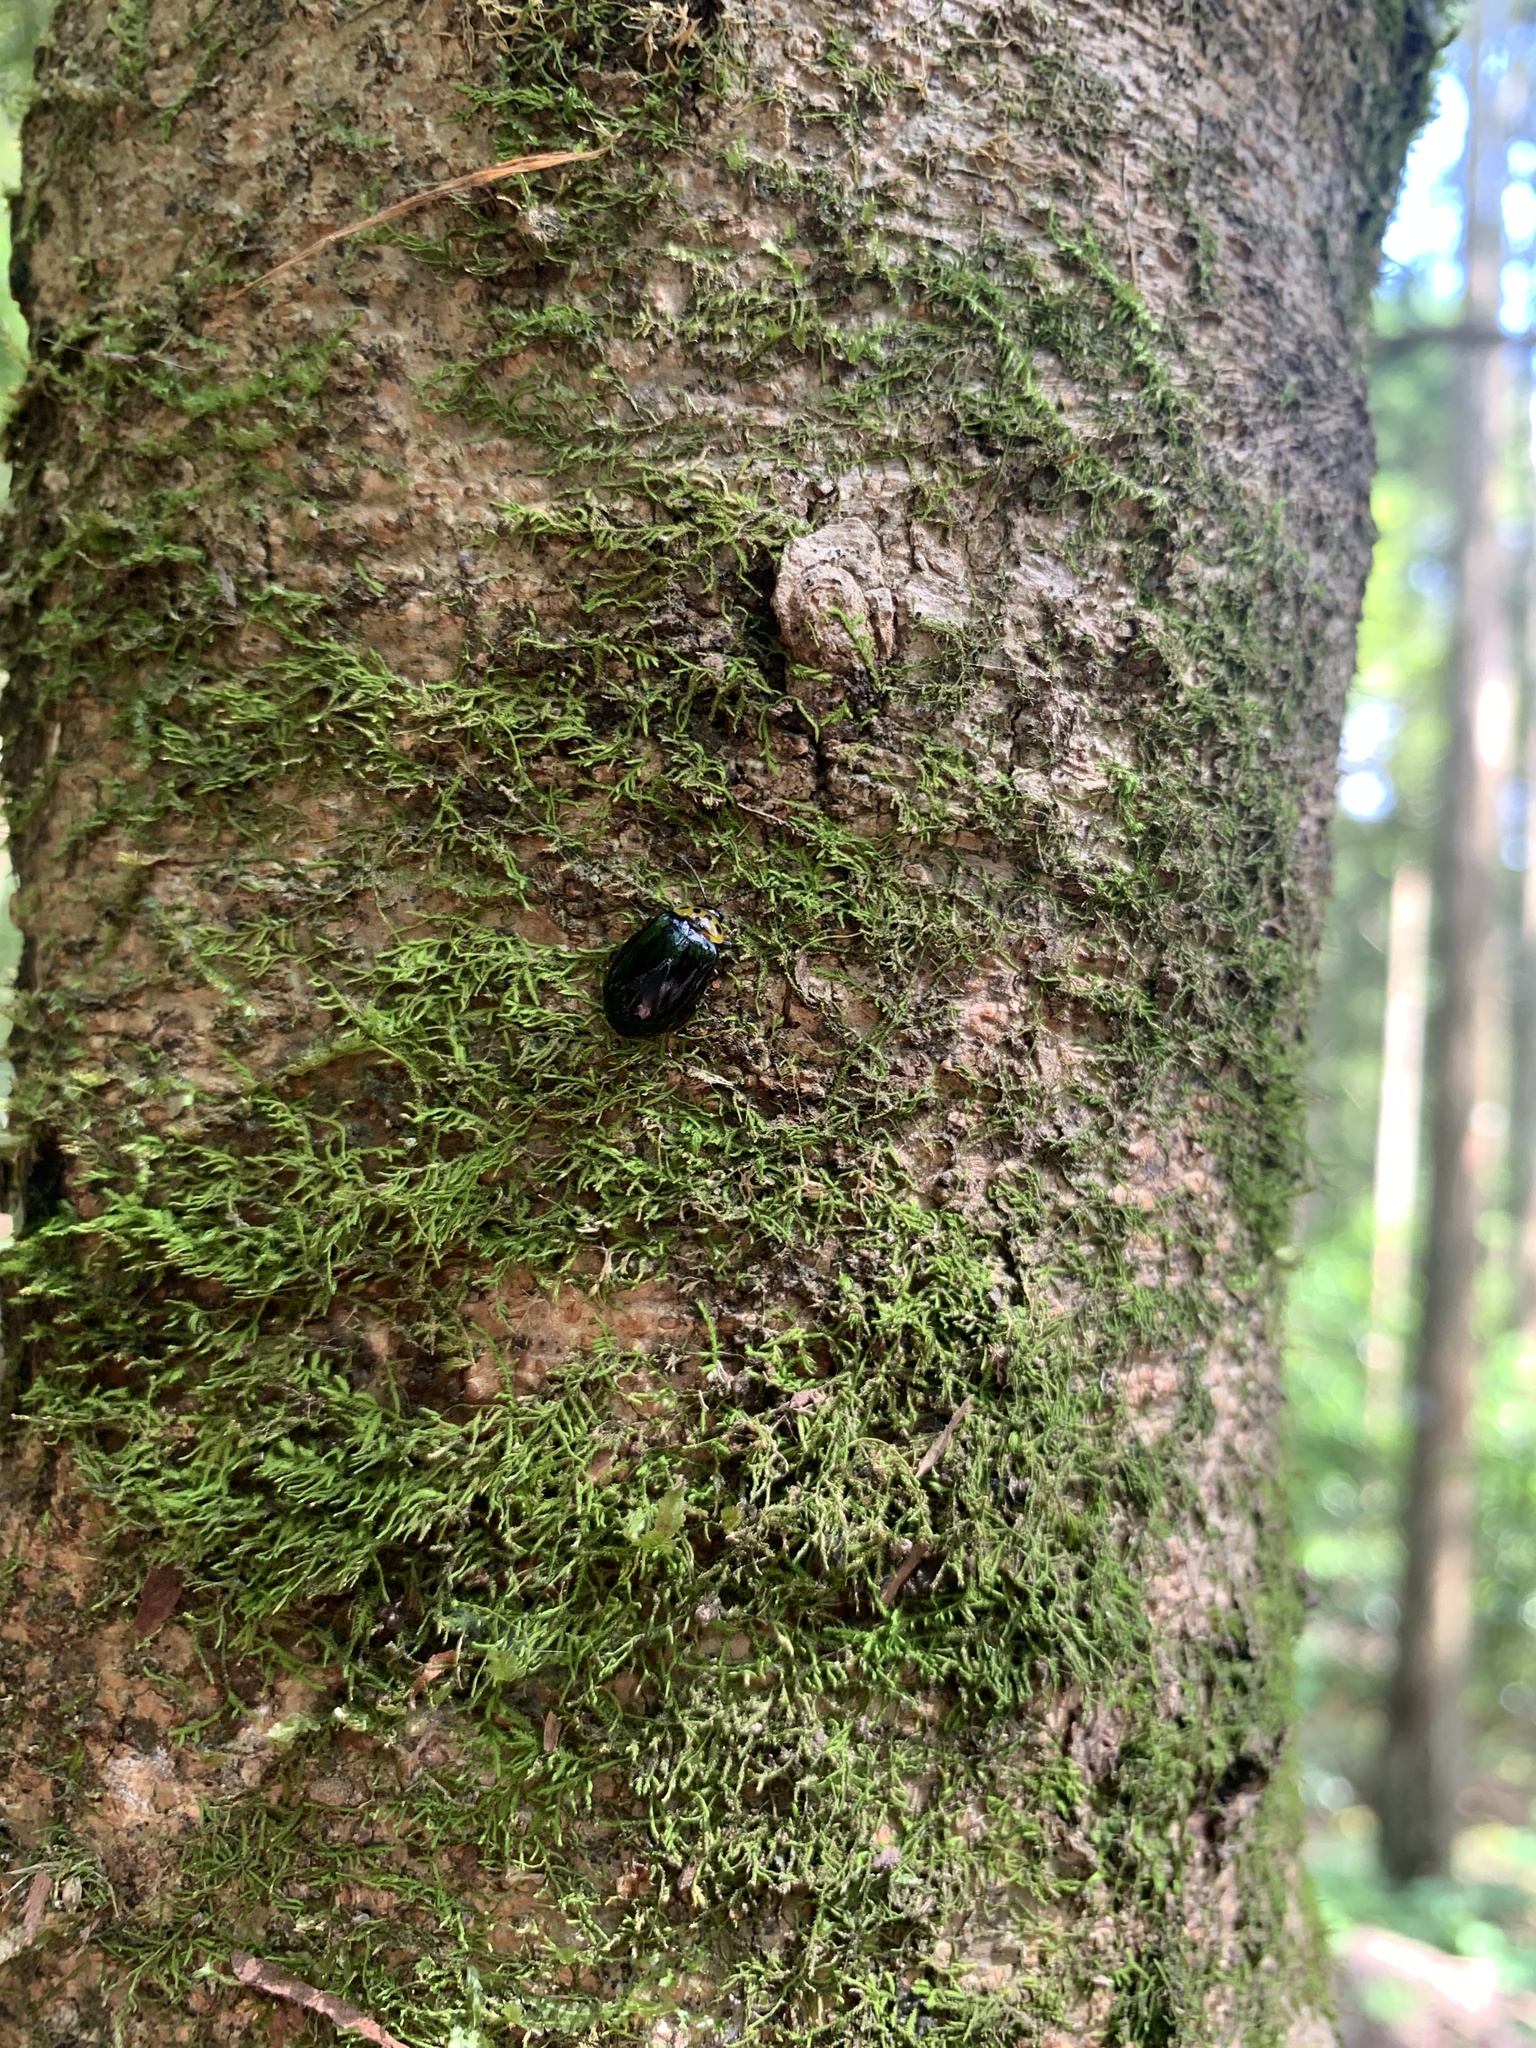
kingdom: Animalia
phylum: Arthropoda
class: Insecta
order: Coleoptera
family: Chrysomelidae
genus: Morphosphaera
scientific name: Morphosphaera japonica
